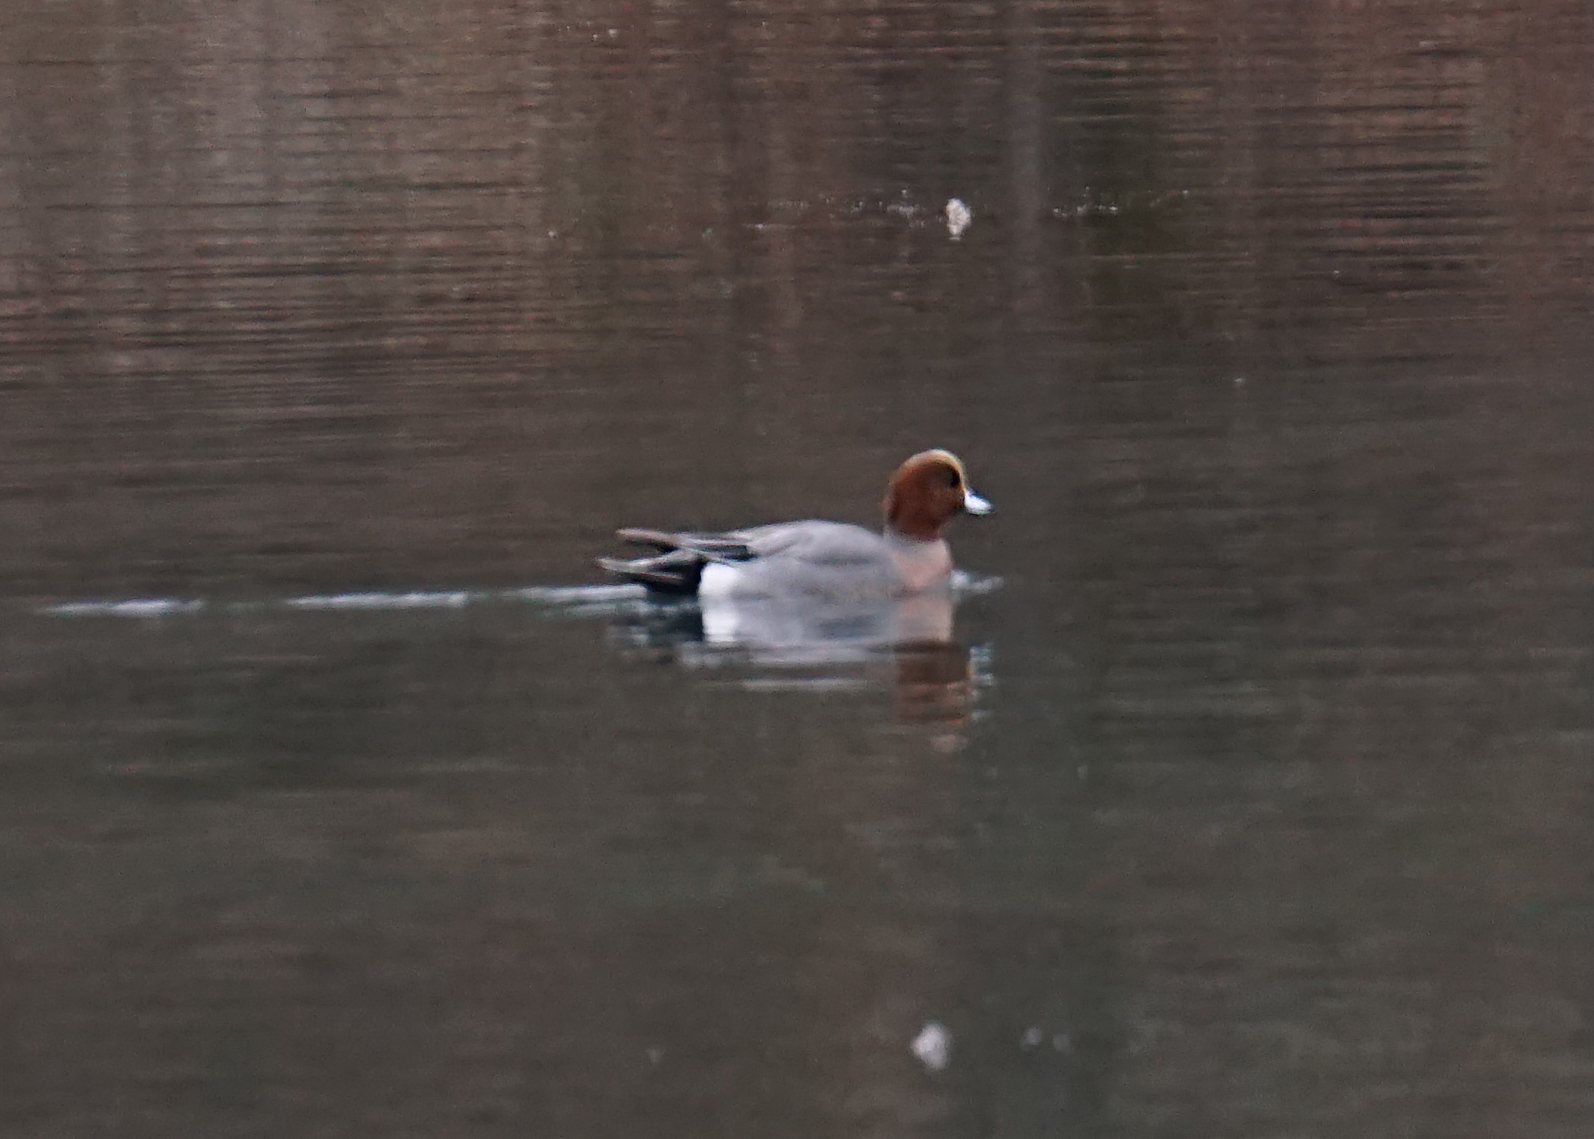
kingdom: Animalia
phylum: Chordata
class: Aves
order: Anseriformes
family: Anatidae
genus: Mareca
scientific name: Mareca penelope
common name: Eurasian wigeon
